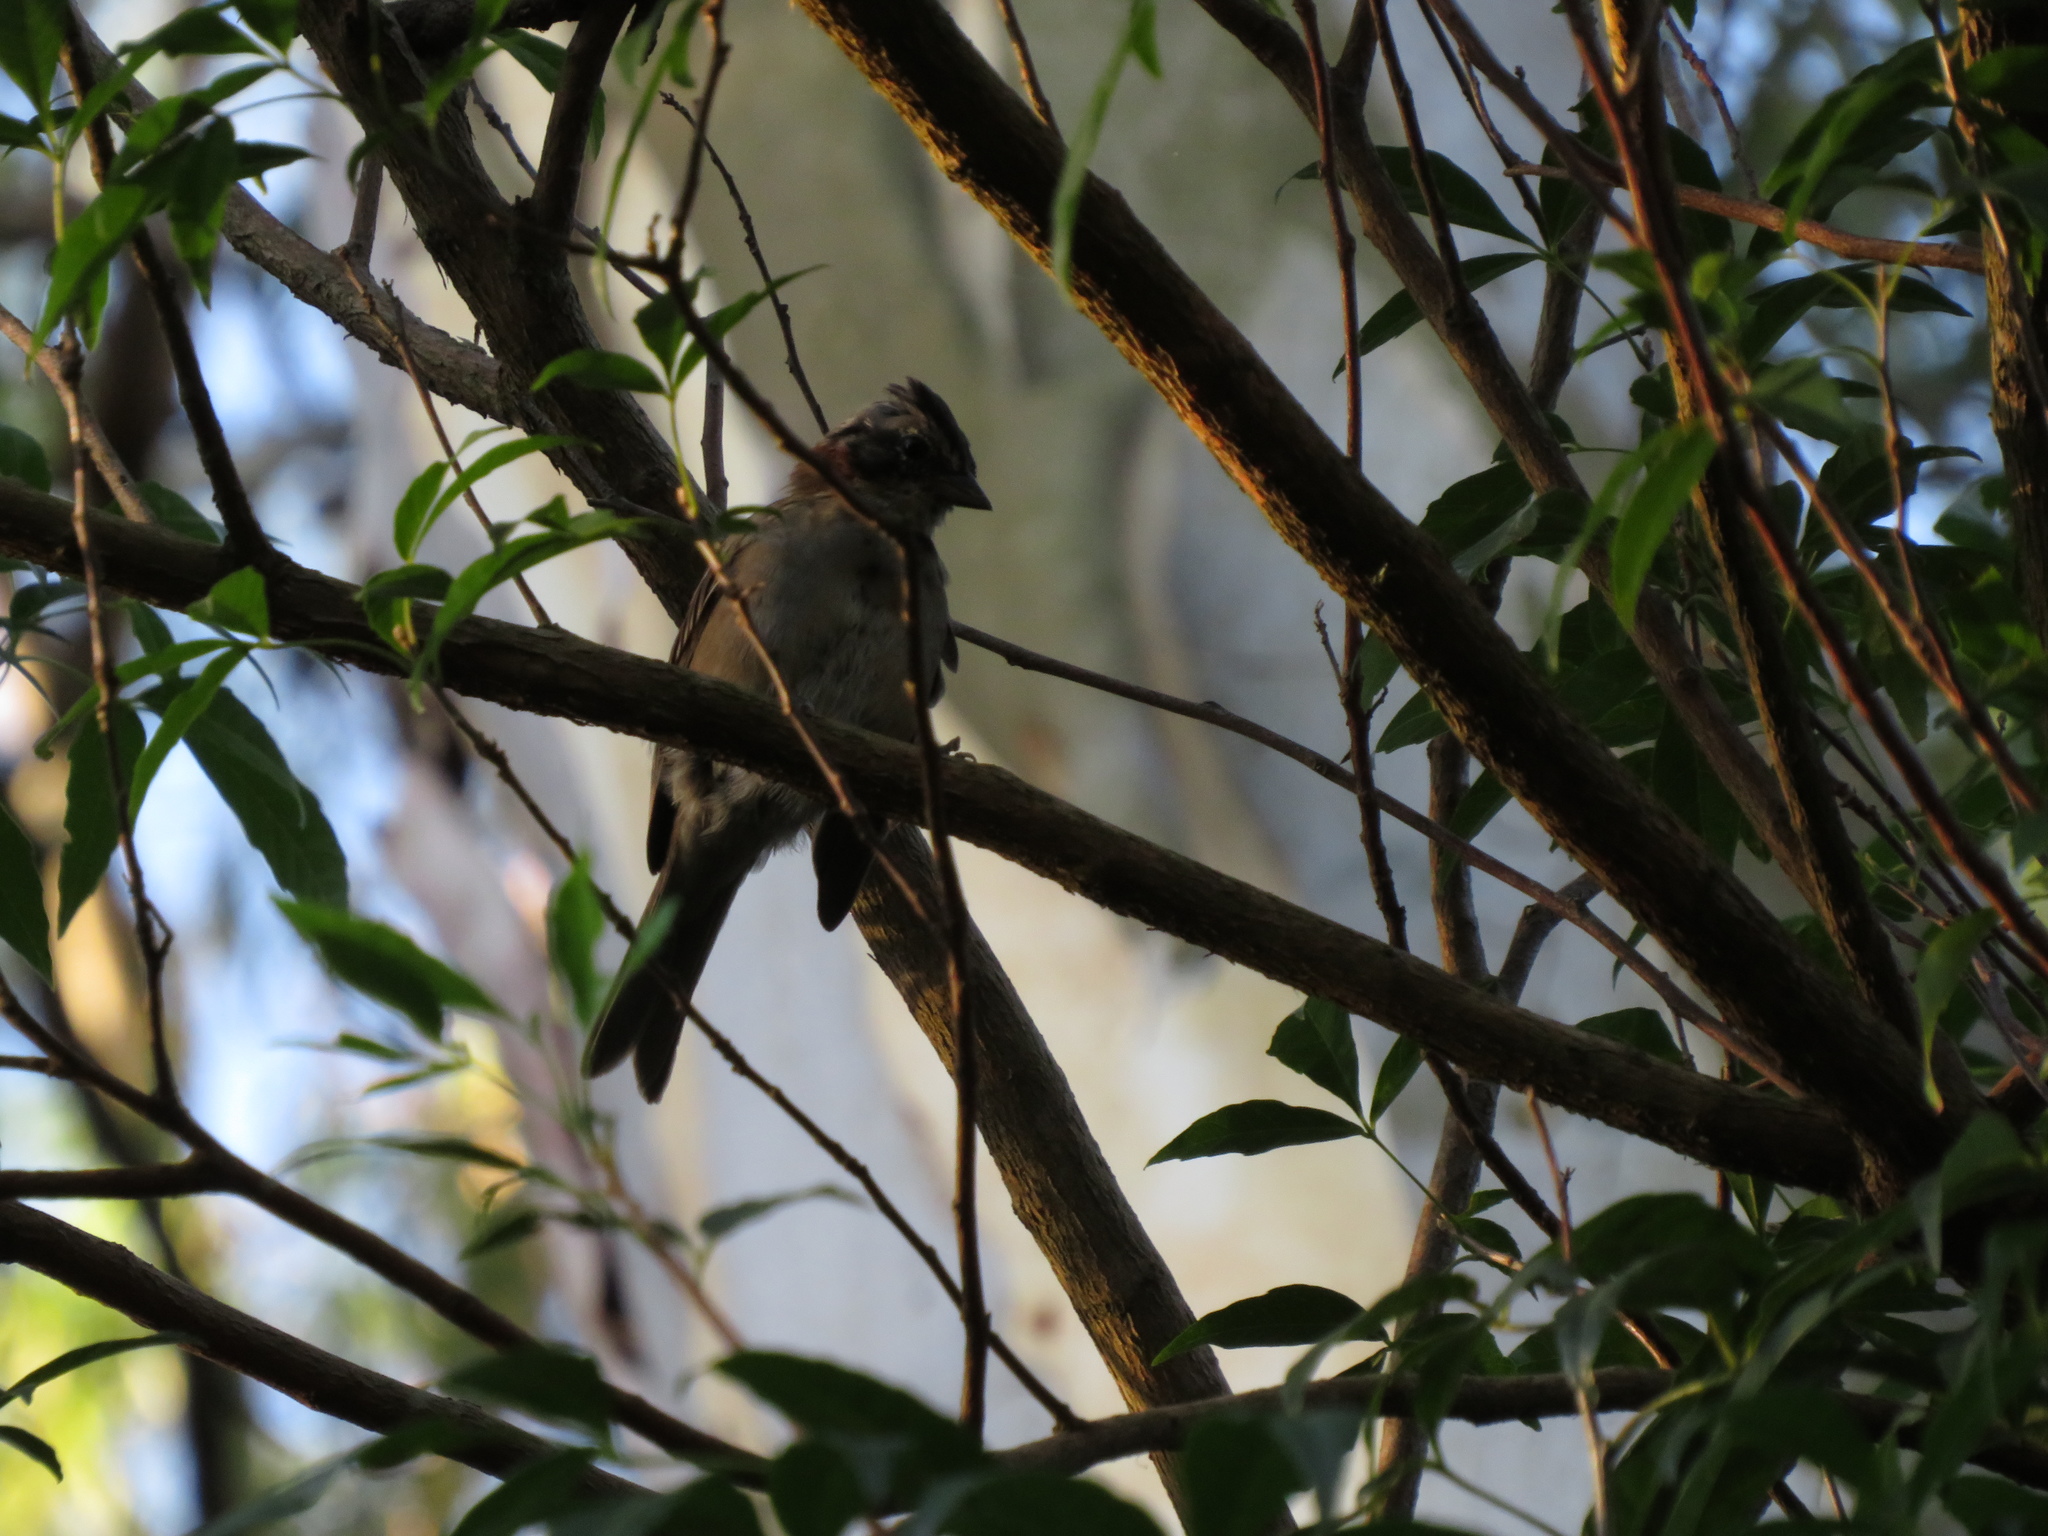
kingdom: Animalia
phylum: Chordata
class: Aves
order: Passeriformes
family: Passerellidae
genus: Zonotrichia
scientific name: Zonotrichia capensis
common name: Rufous-collared sparrow
